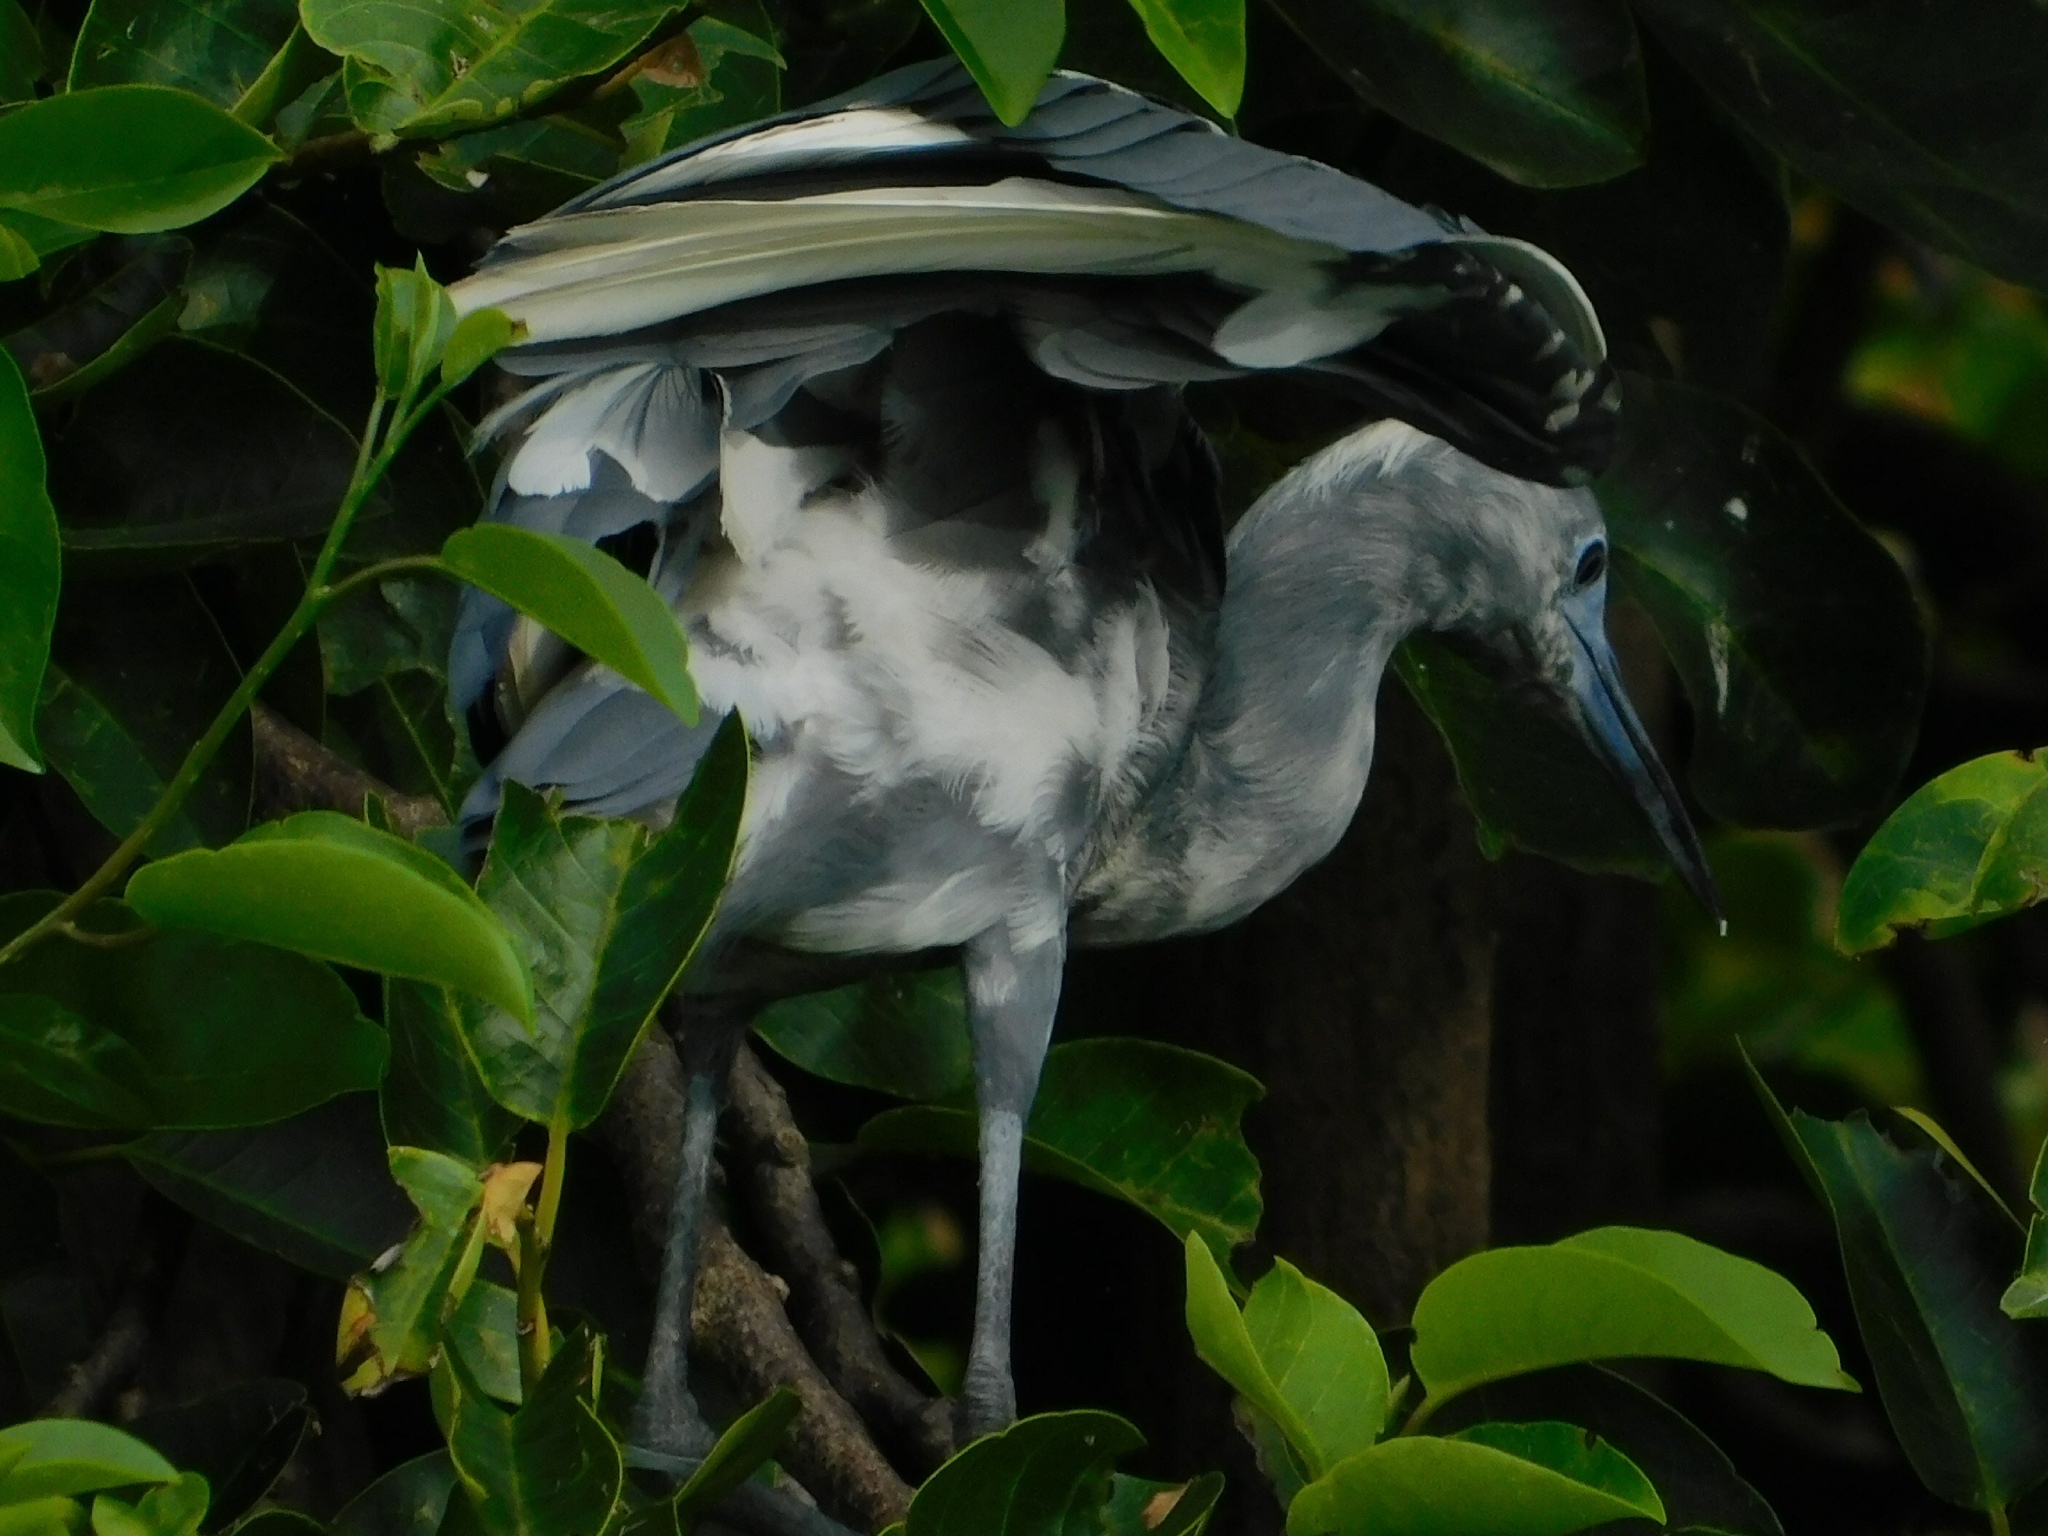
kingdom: Animalia
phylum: Chordata
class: Aves
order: Pelecaniformes
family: Ardeidae
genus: Egretta
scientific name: Egretta caerulea
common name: Little blue heron
